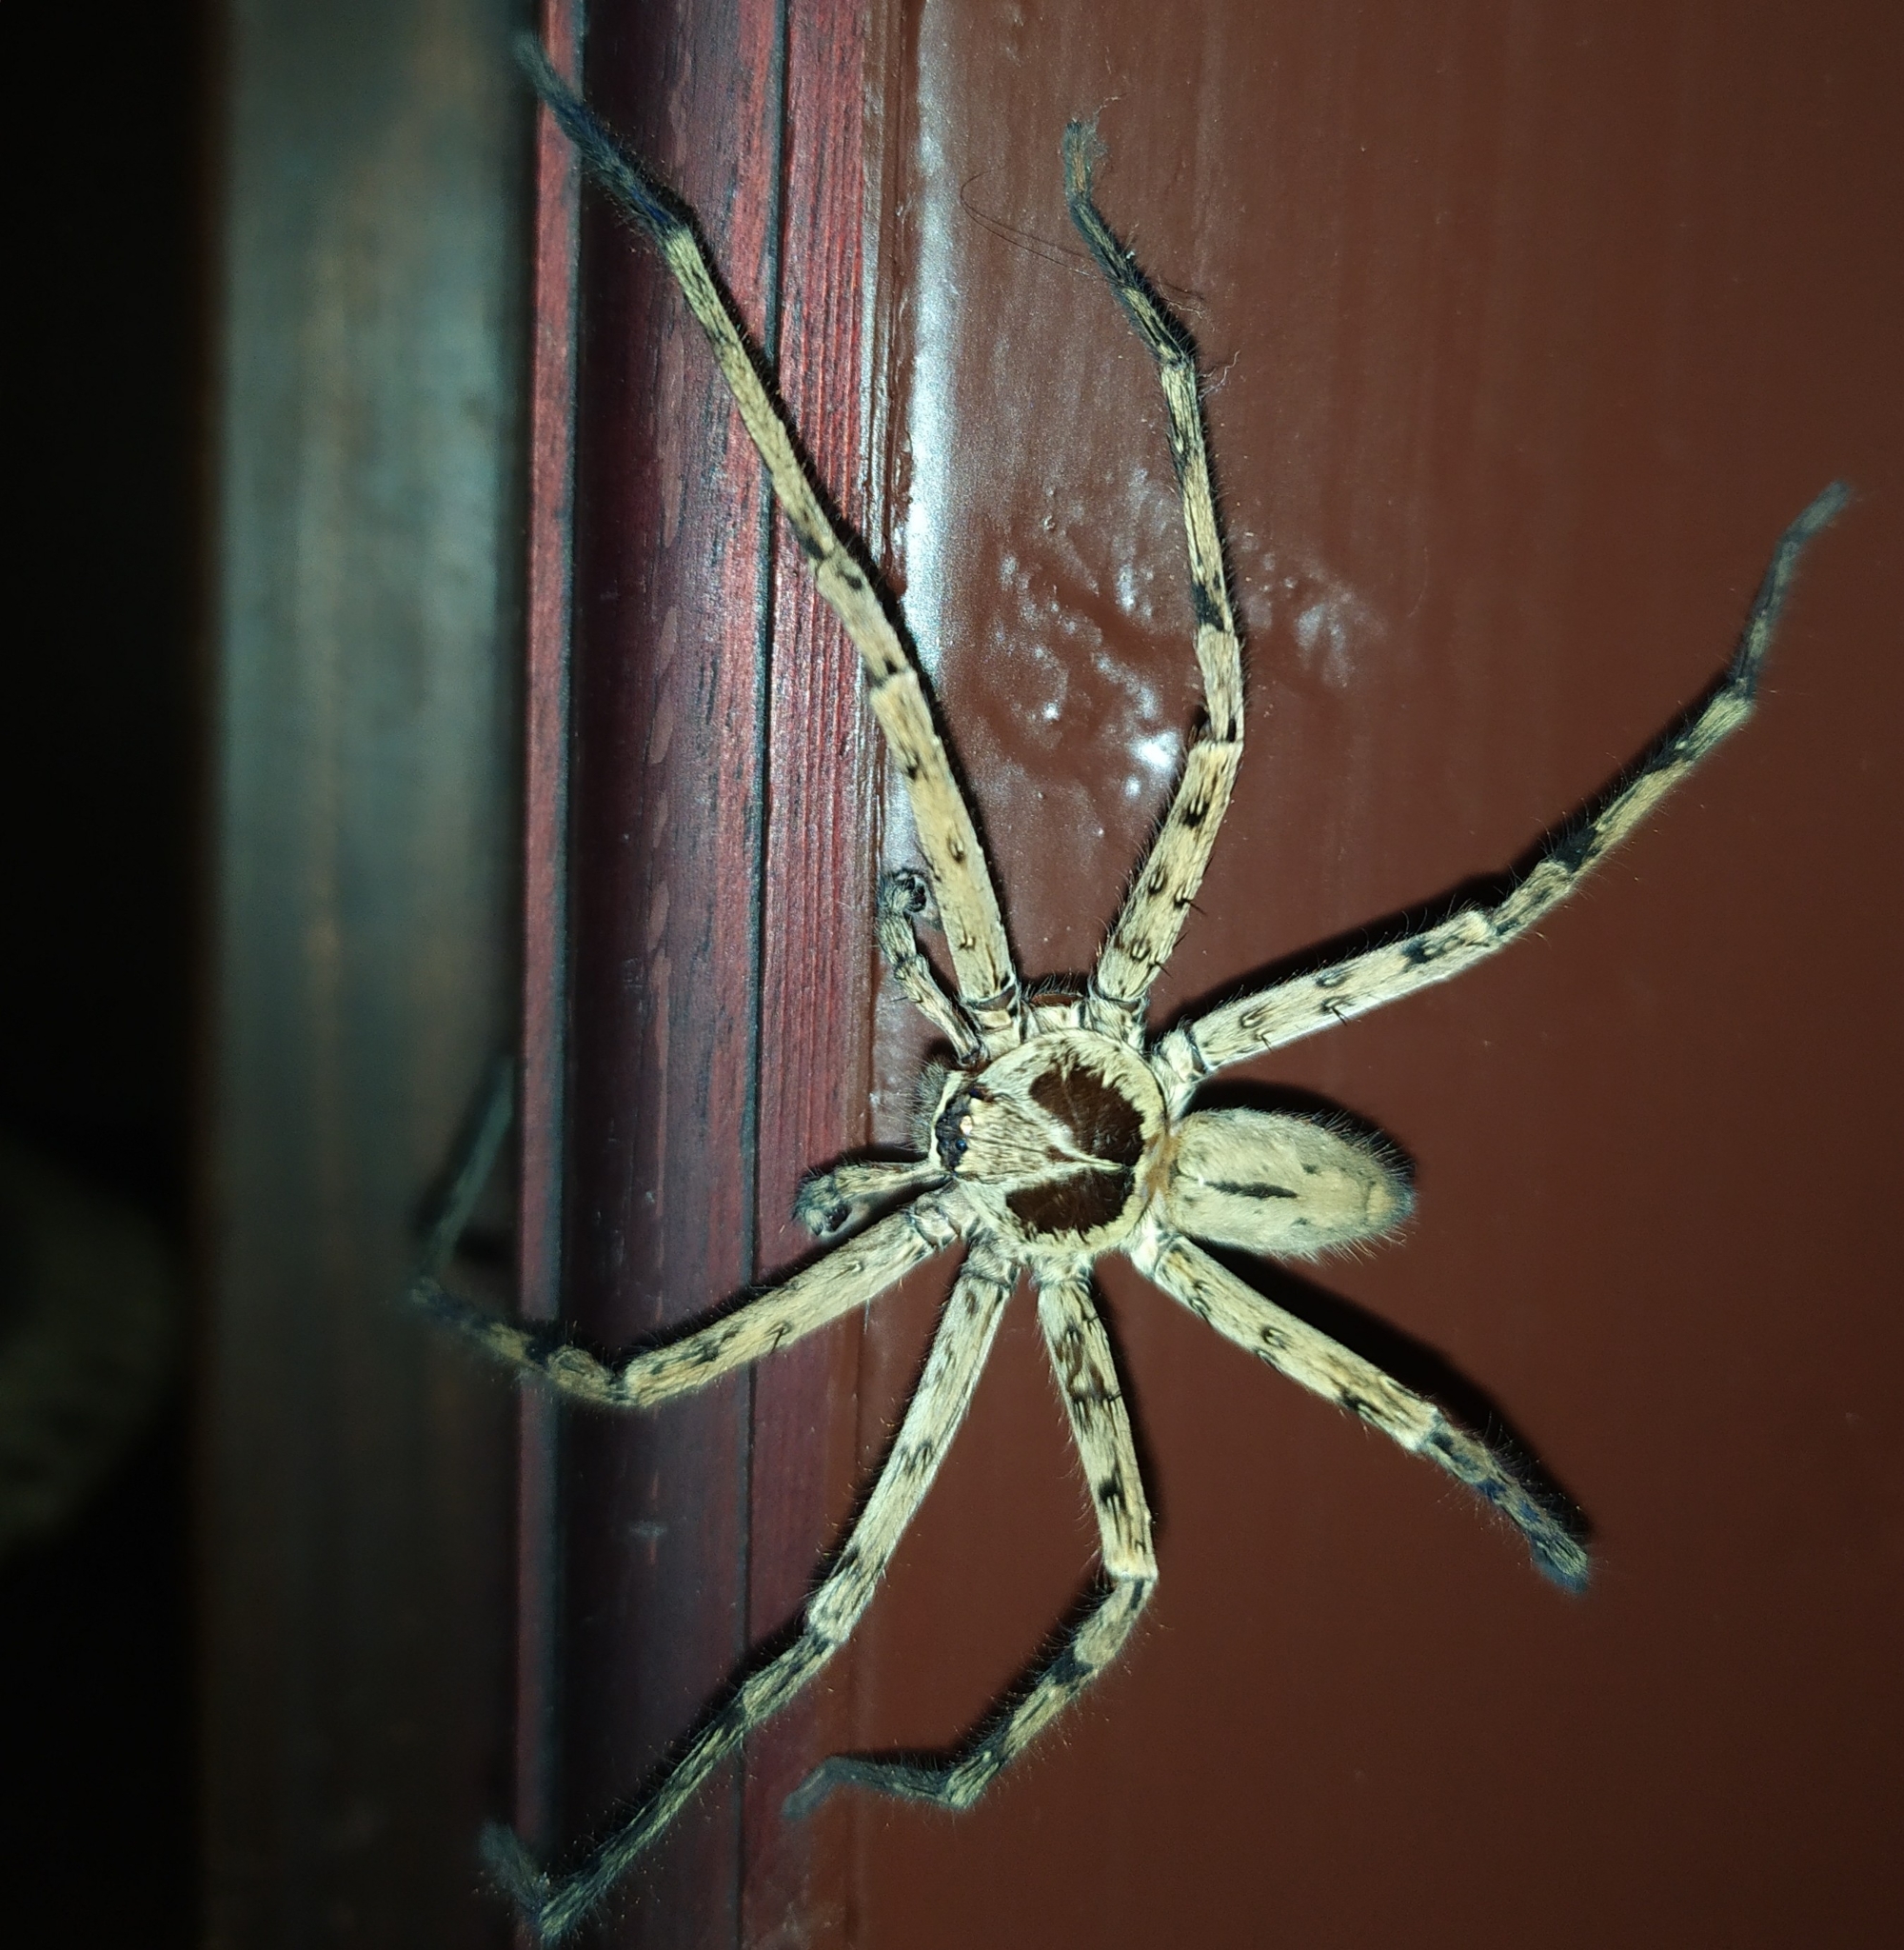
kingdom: Animalia
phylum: Arthropoda
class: Arachnida
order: Araneae
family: Sparassidae
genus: Heteropoda
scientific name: Heteropoda venatoria
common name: Huntsman spider
